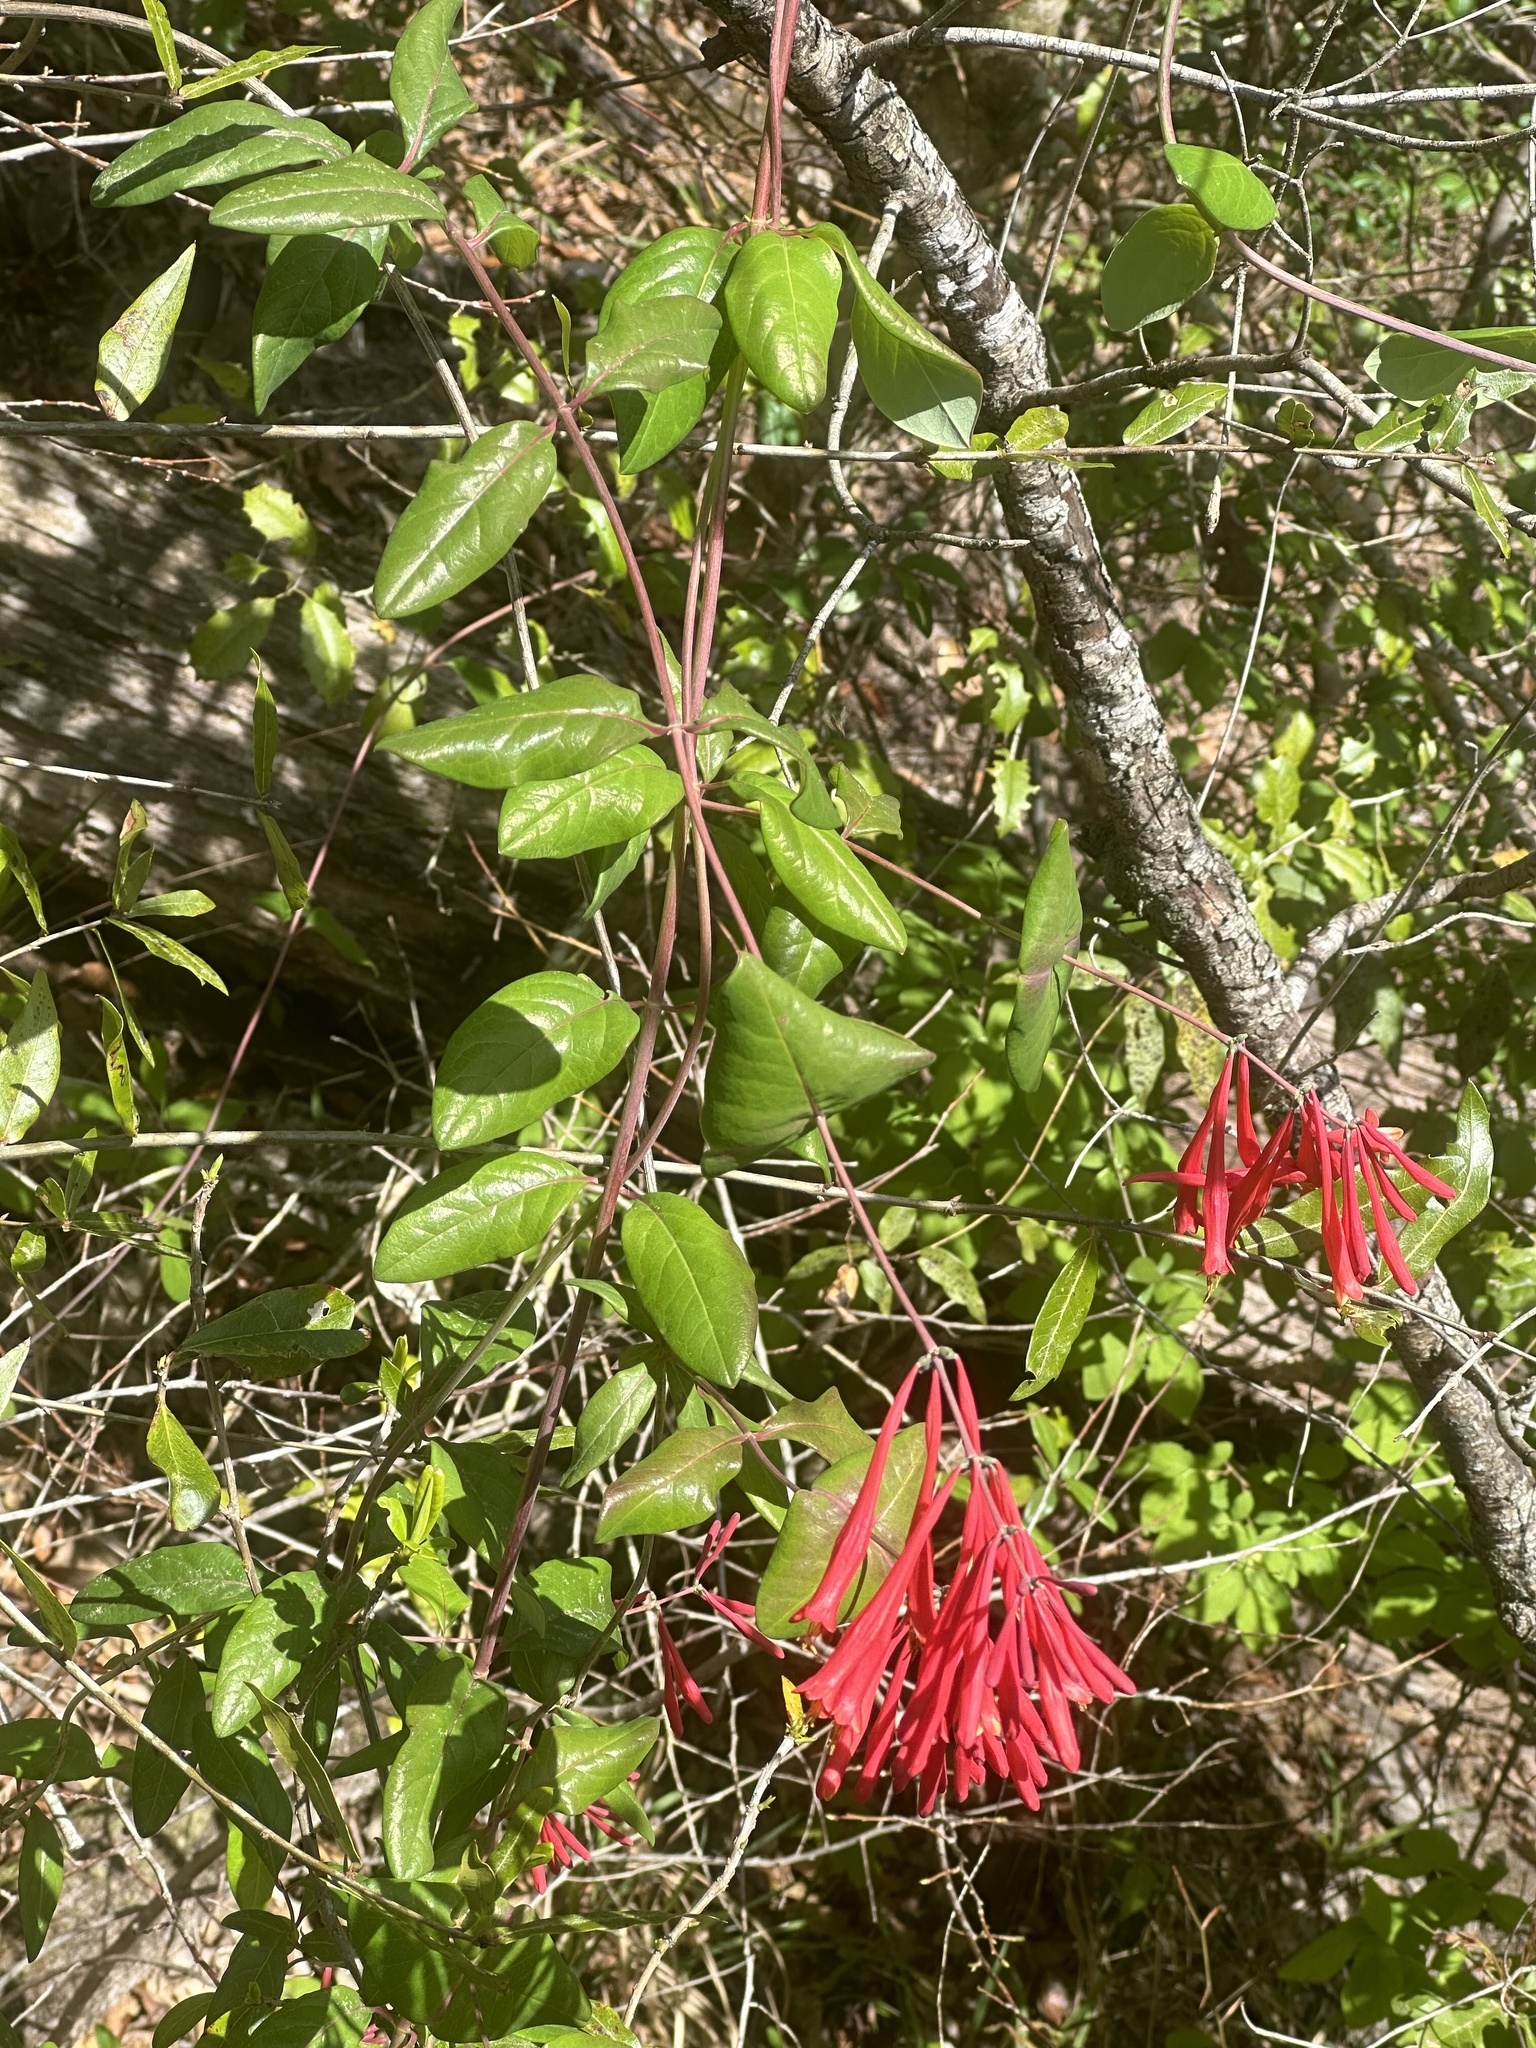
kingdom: Plantae
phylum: Tracheophyta
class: Magnoliopsida
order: Dipsacales
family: Caprifoliaceae
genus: Lonicera
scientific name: Lonicera sempervirens
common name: Coral honeysuckle
